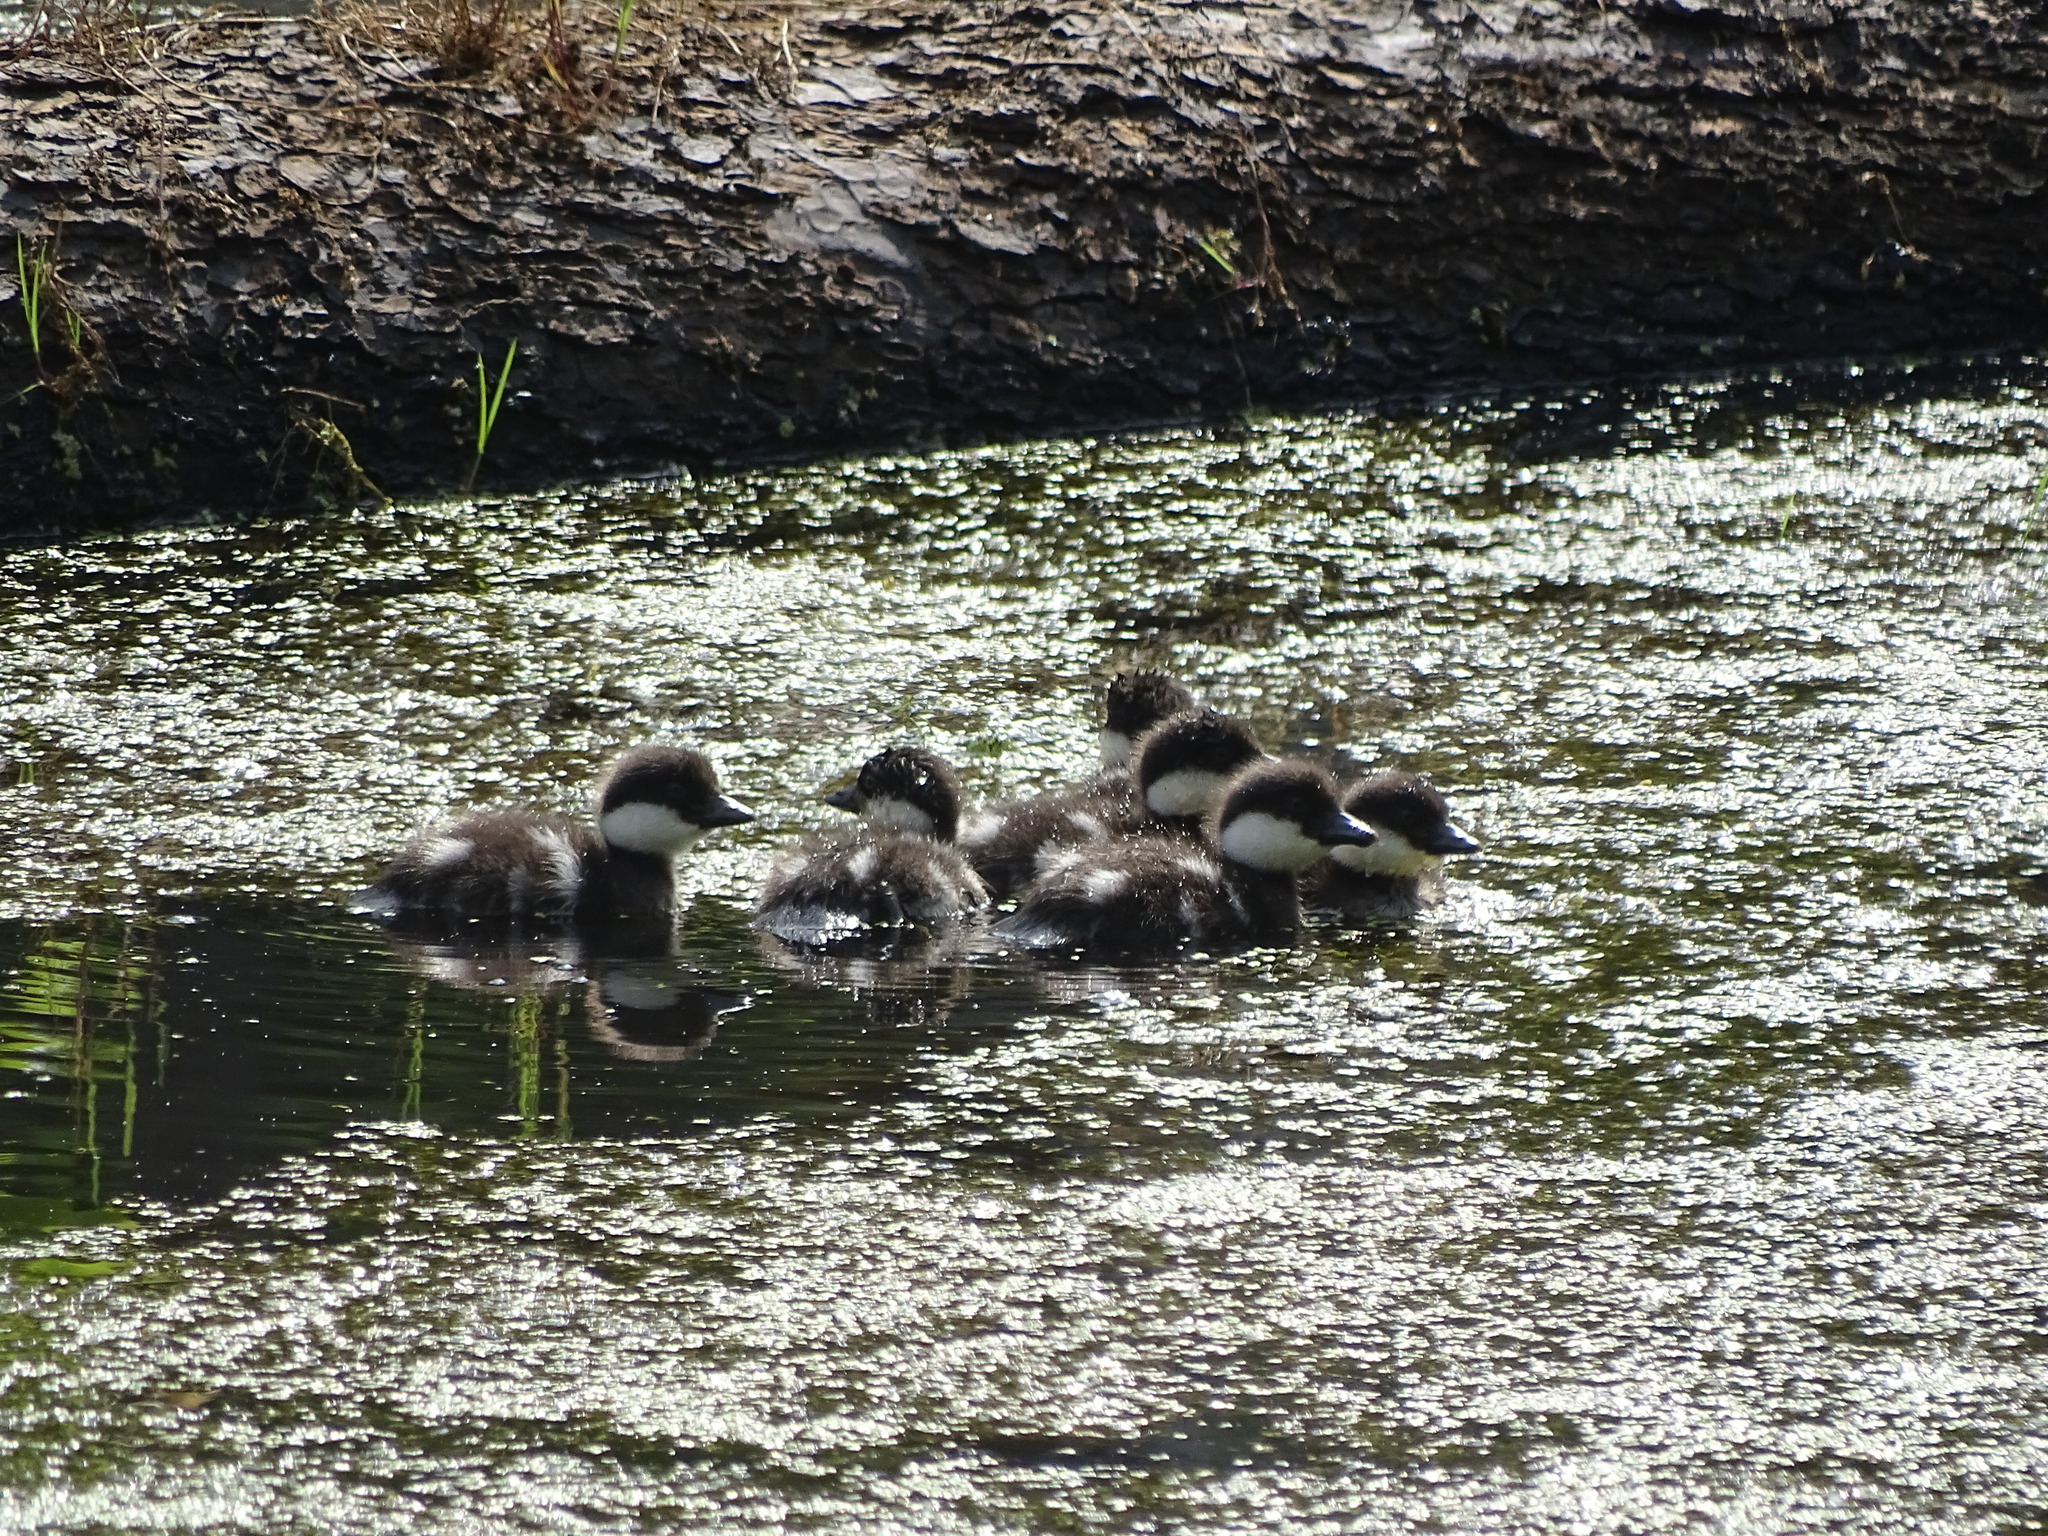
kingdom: Animalia
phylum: Chordata
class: Aves
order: Anseriformes
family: Anatidae
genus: Bucephala
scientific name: Bucephala clangula
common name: Common goldeneye
